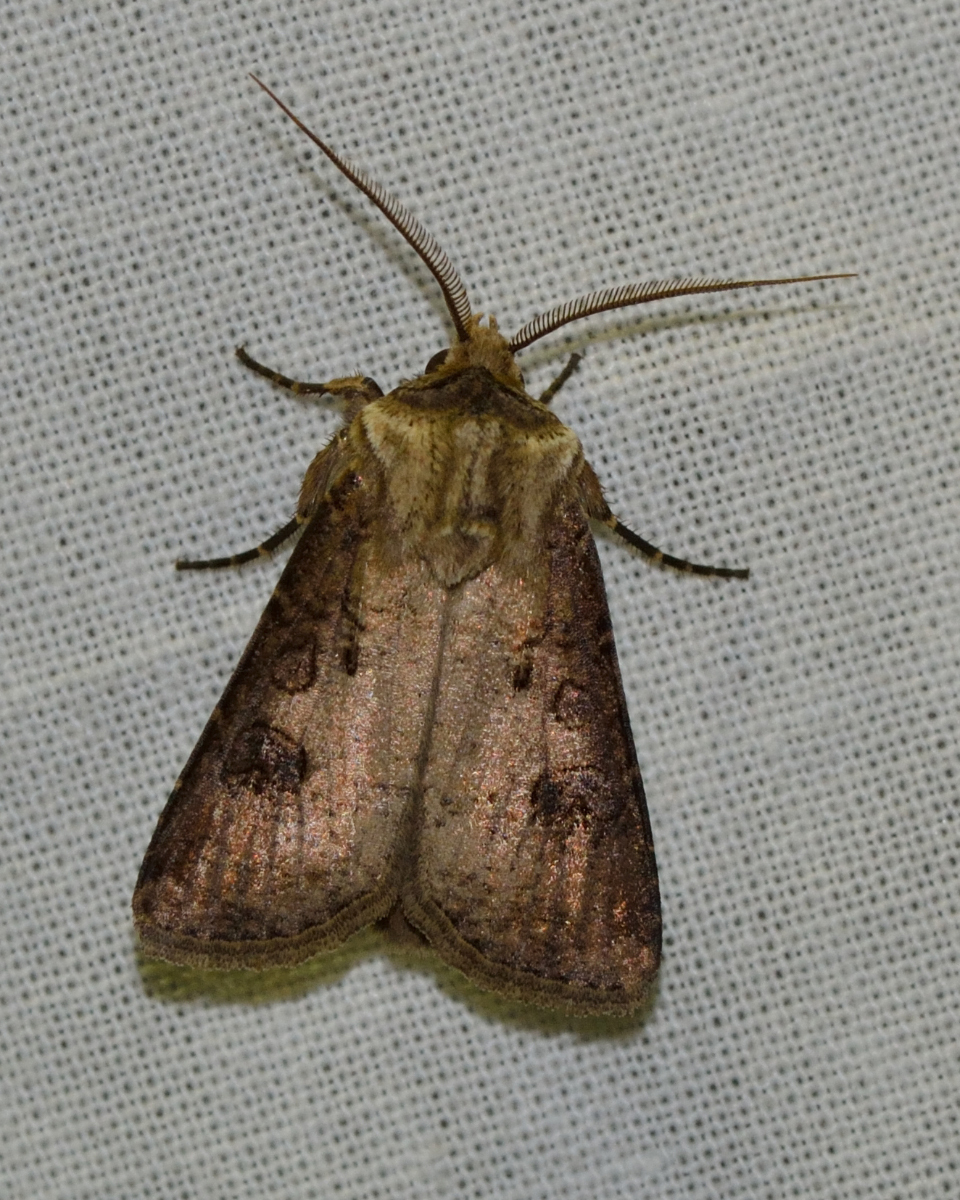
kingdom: Animalia
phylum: Arthropoda
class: Insecta
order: Lepidoptera
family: Noctuidae
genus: Agrotis
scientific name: Agrotis clavis
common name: Heart and club
